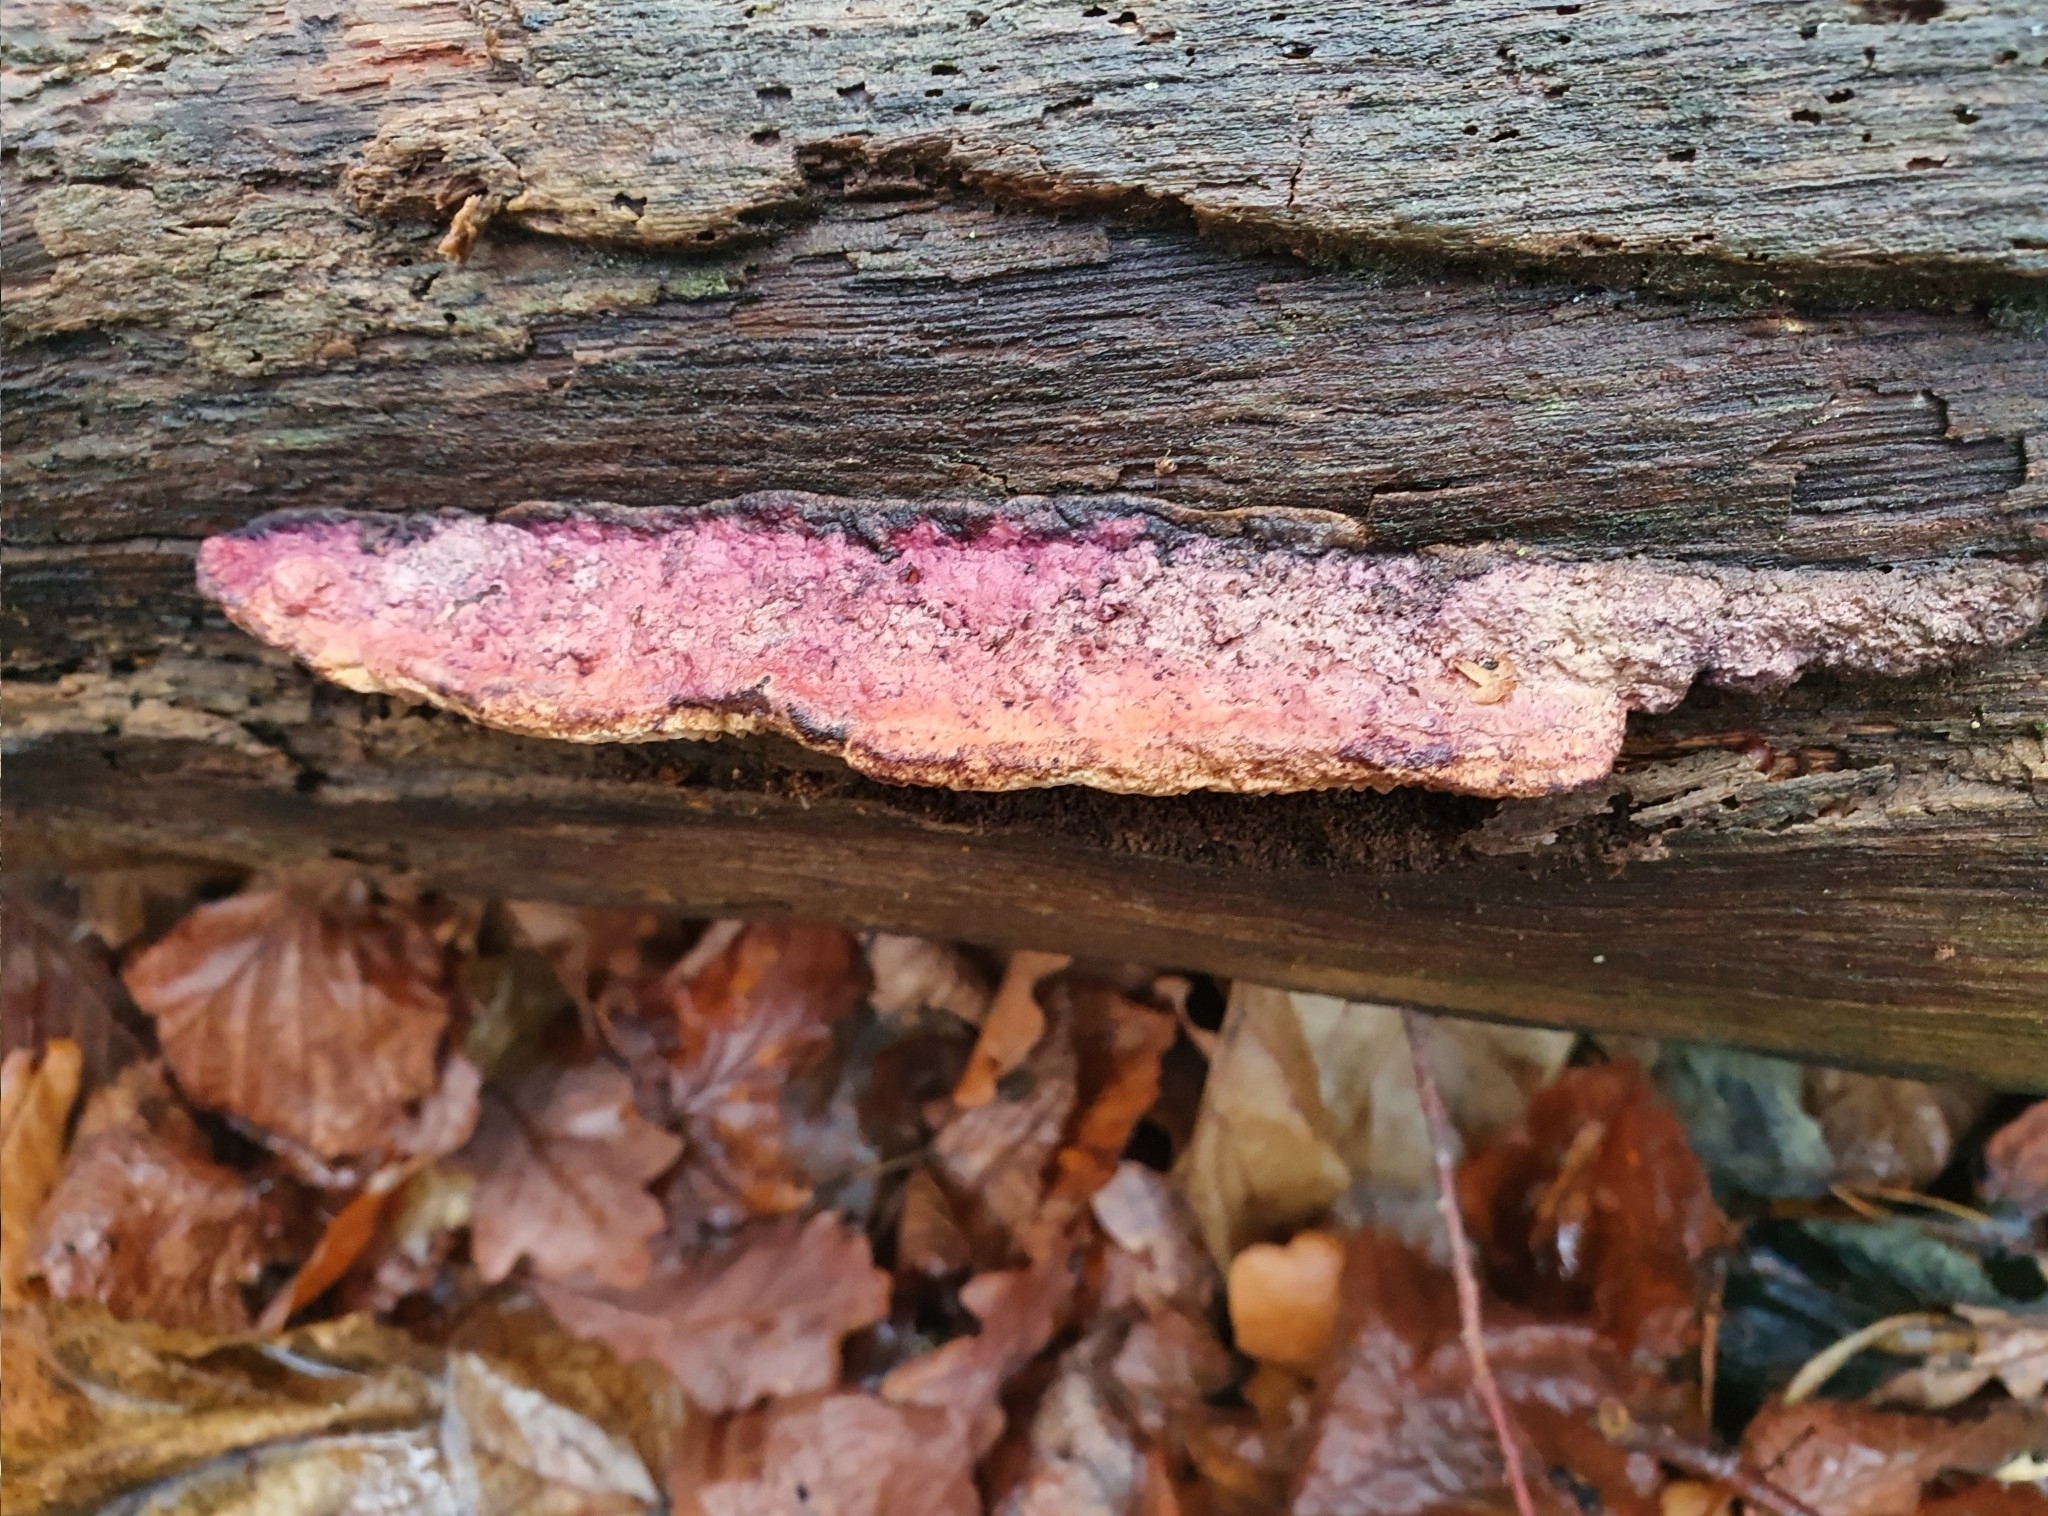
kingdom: Fungi
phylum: Basidiomycota
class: Agaricomycetes
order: Polyporales
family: Fomitopsidaceae
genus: Fomitopsis
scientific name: Fomitopsis
